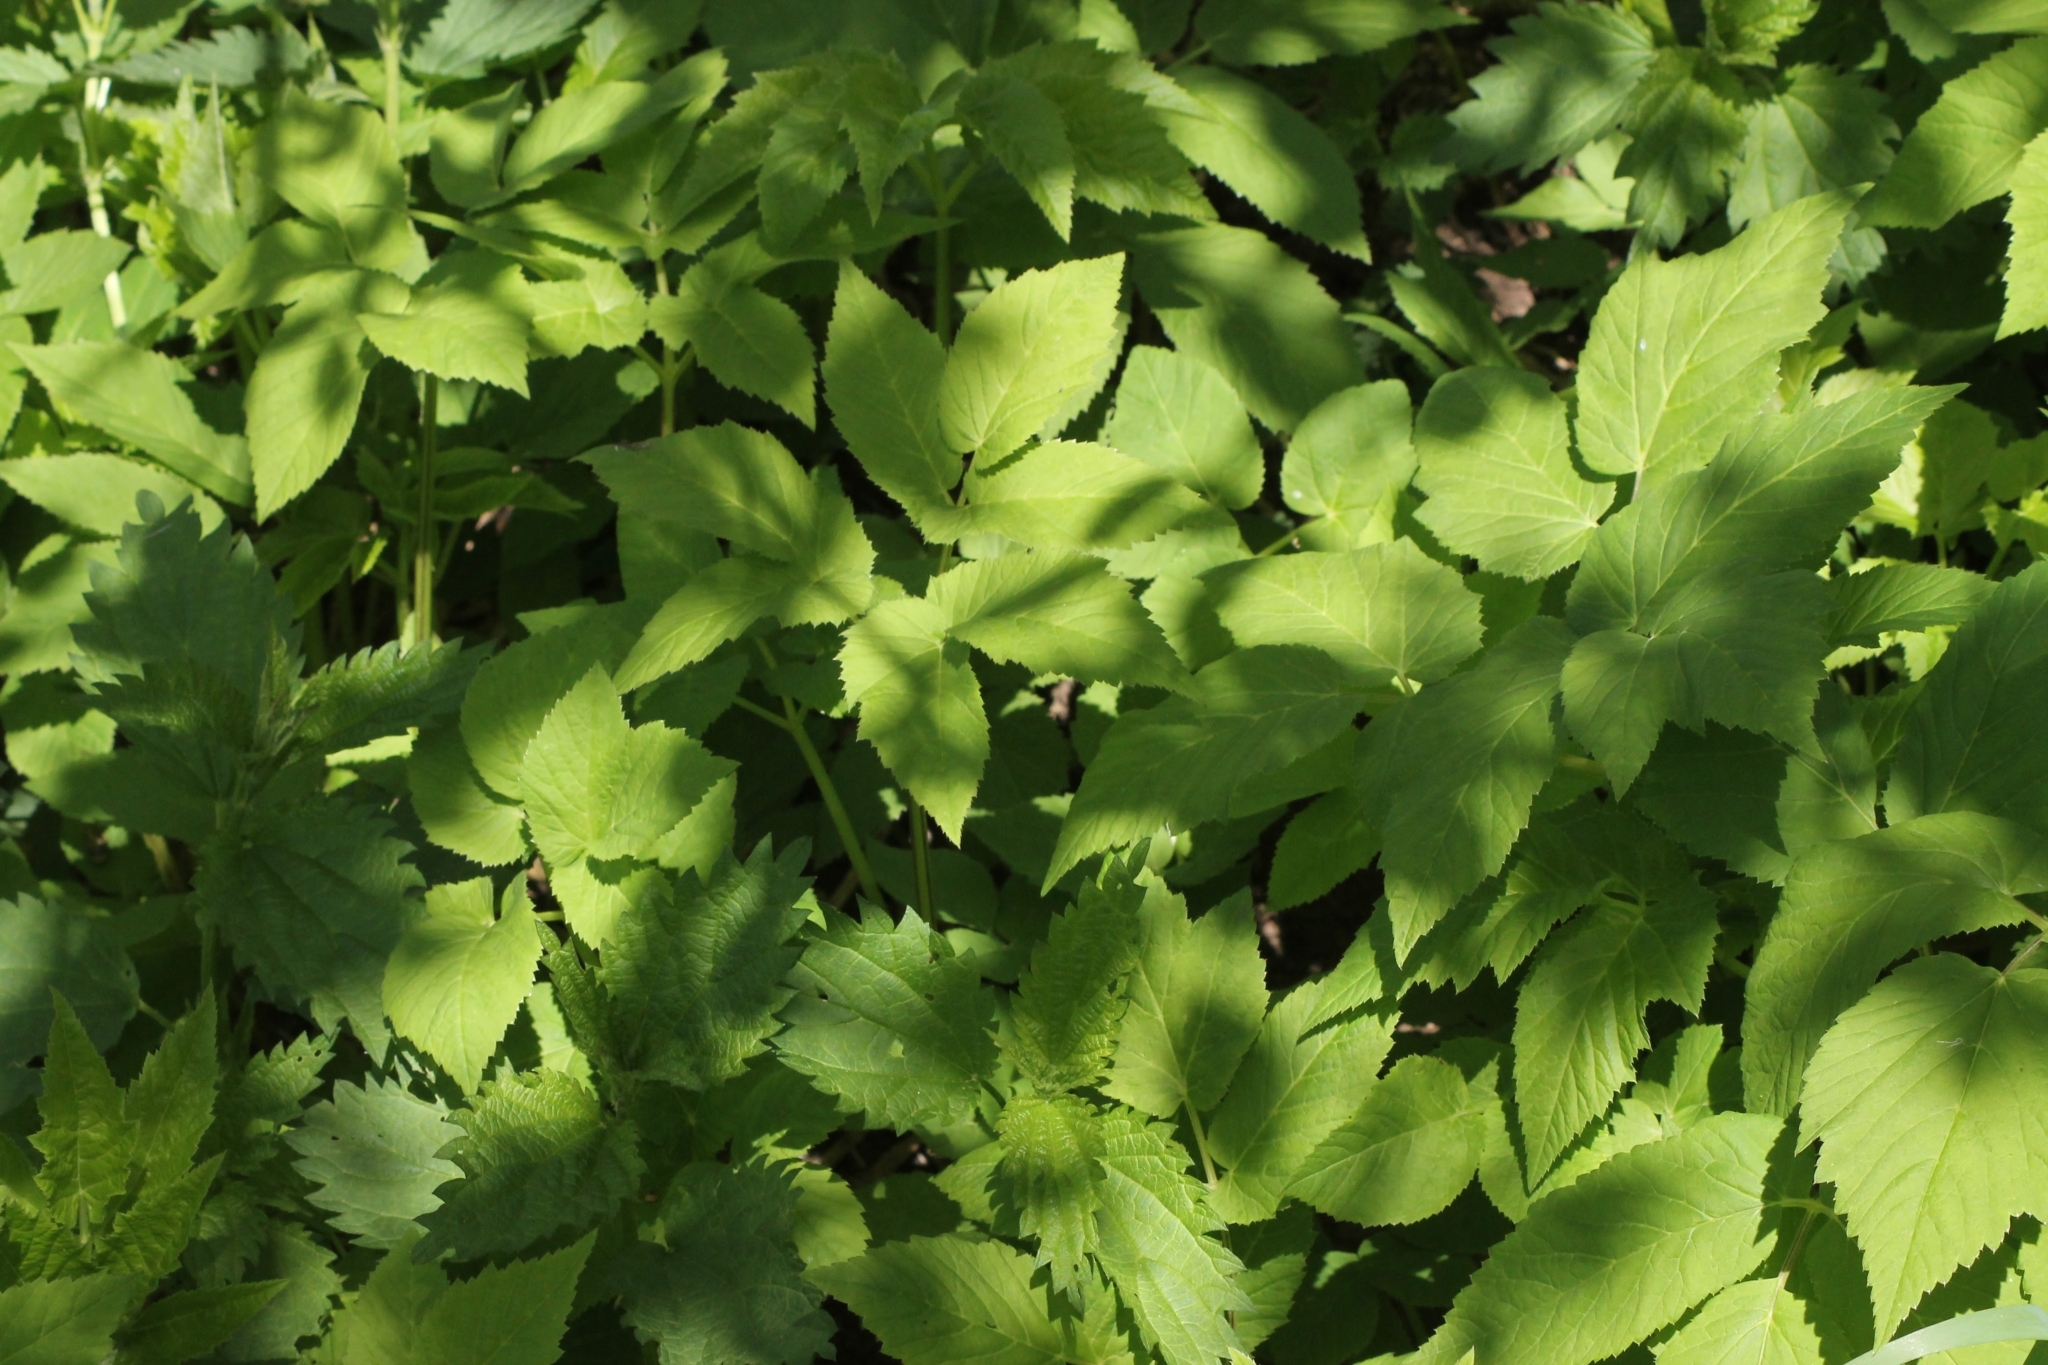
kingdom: Plantae
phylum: Tracheophyta
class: Magnoliopsida
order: Apiales
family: Apiaceae
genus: Aegopodium
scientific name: Aegopodium podagraria
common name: Ground-elder
